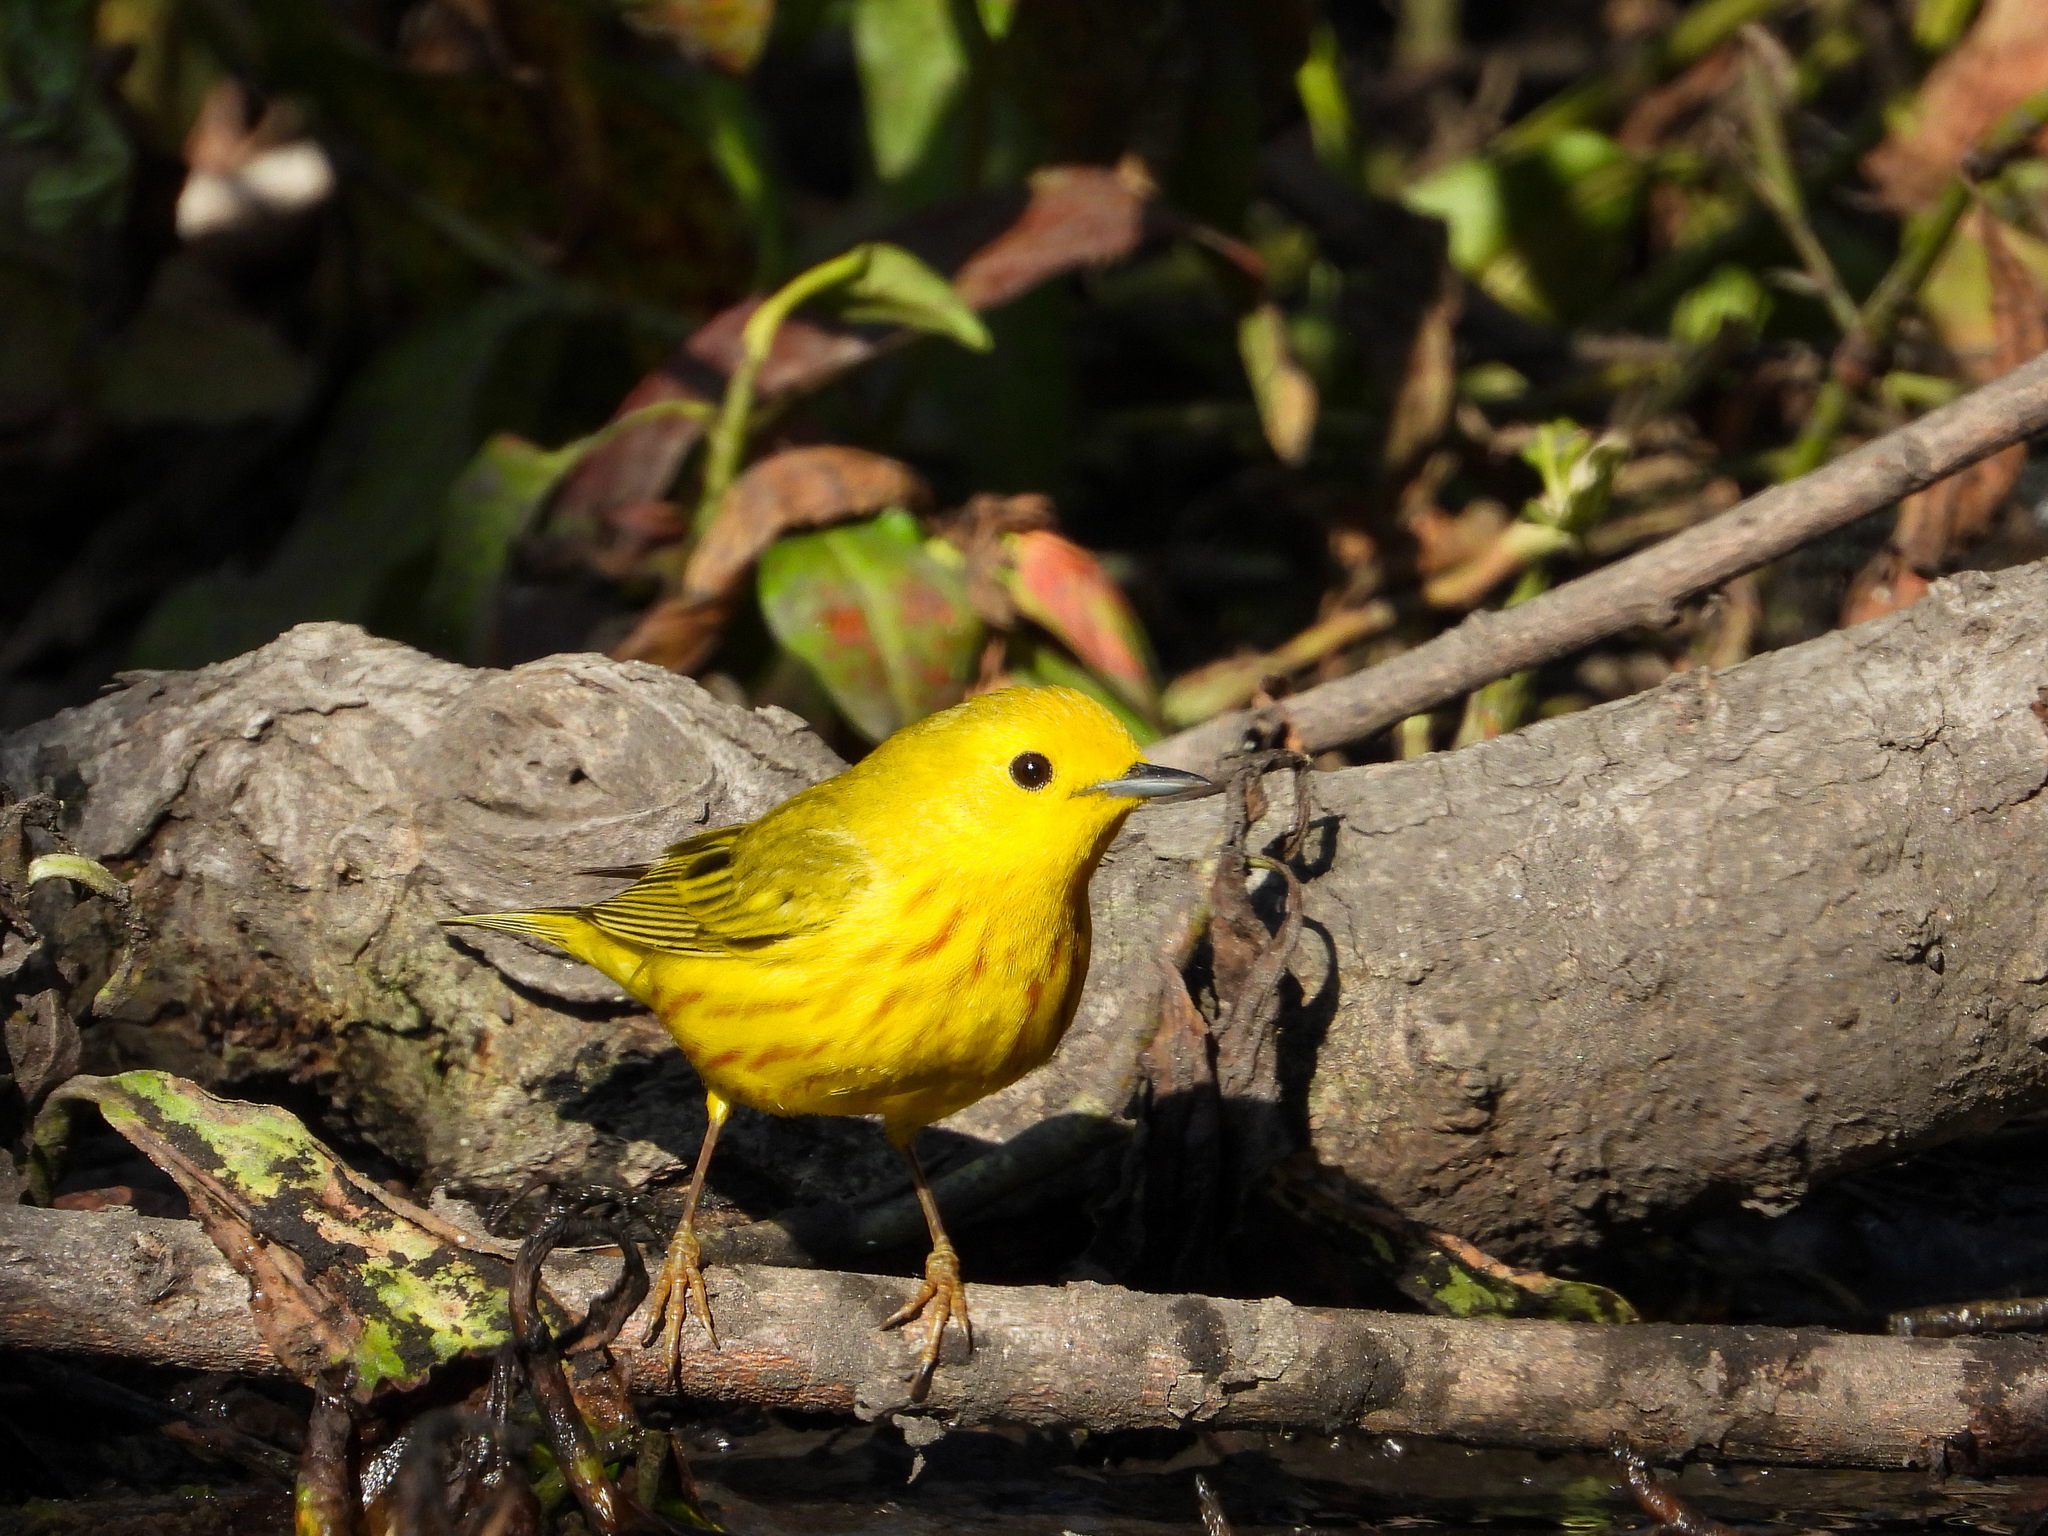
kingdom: Animalia
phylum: Chordata
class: Aves
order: Passeriformes
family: Parulidae
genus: Setophaga
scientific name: Setophaga petechia
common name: Yellow warbler
